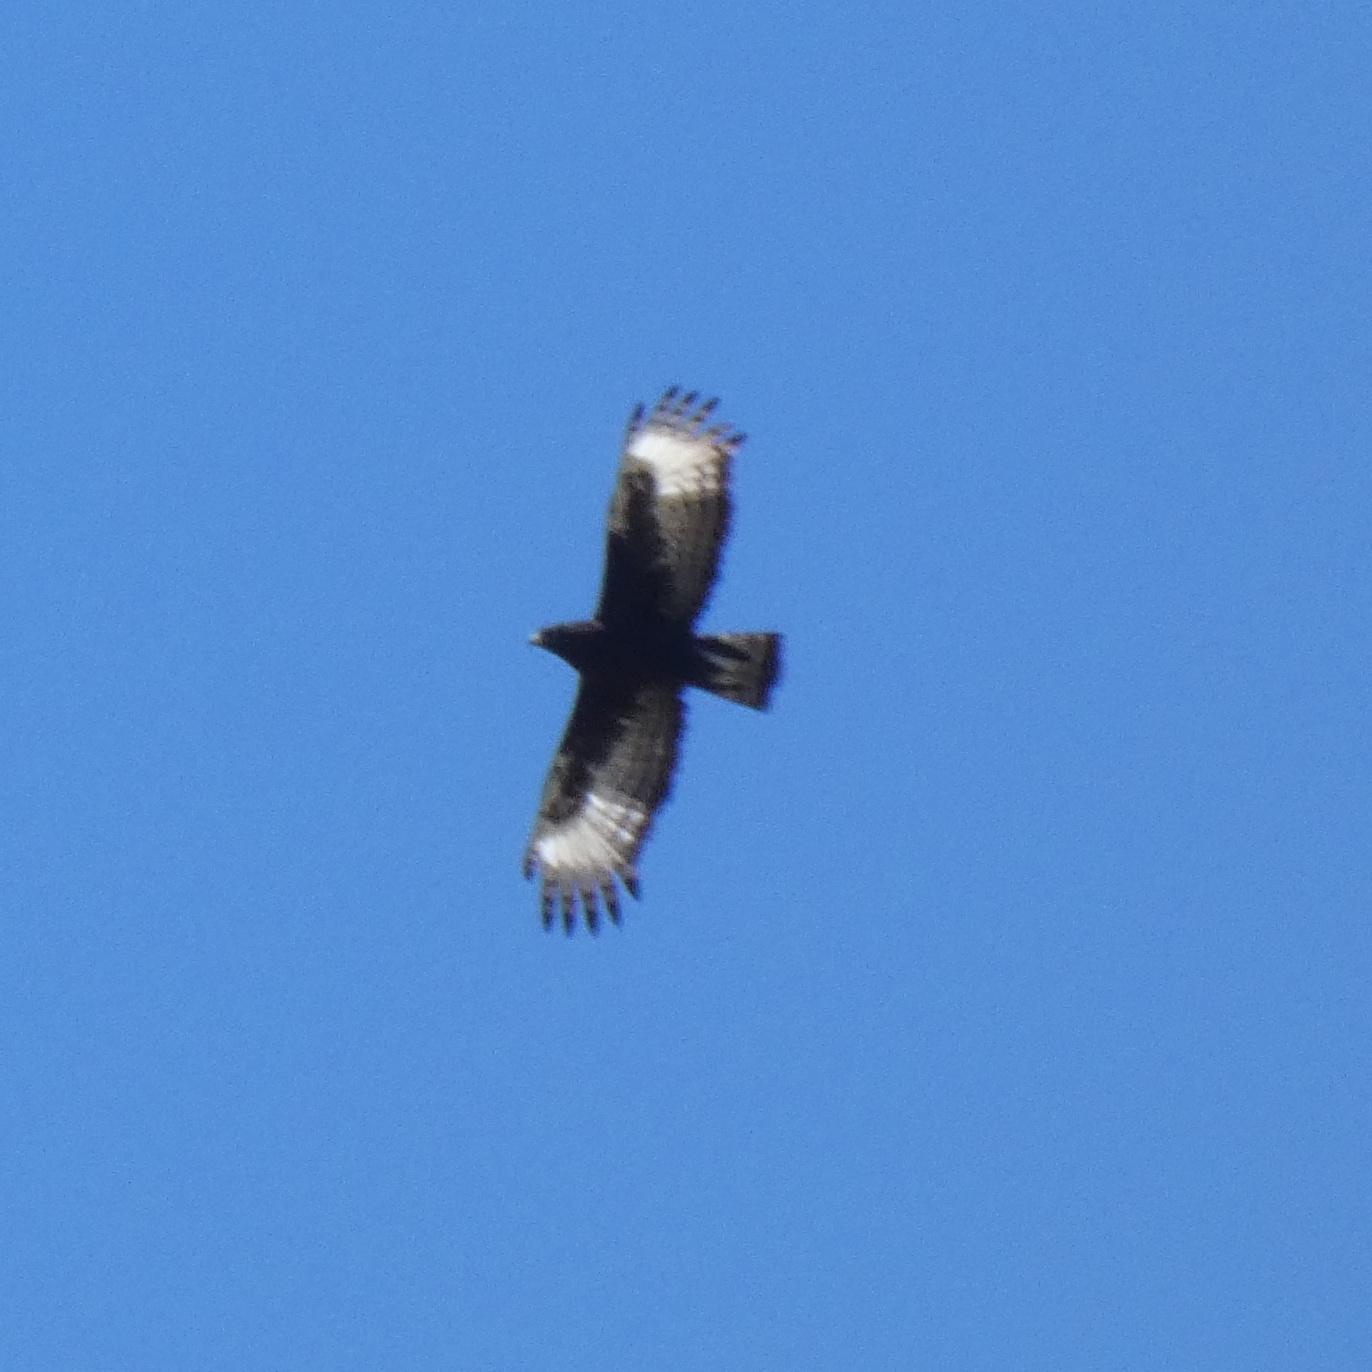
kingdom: Animalia
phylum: Chordata
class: Aves
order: Accipitriformes
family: Accipitridae
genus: Lophaetus
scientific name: Lophaetus occipitalis
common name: Long-crested eagle
